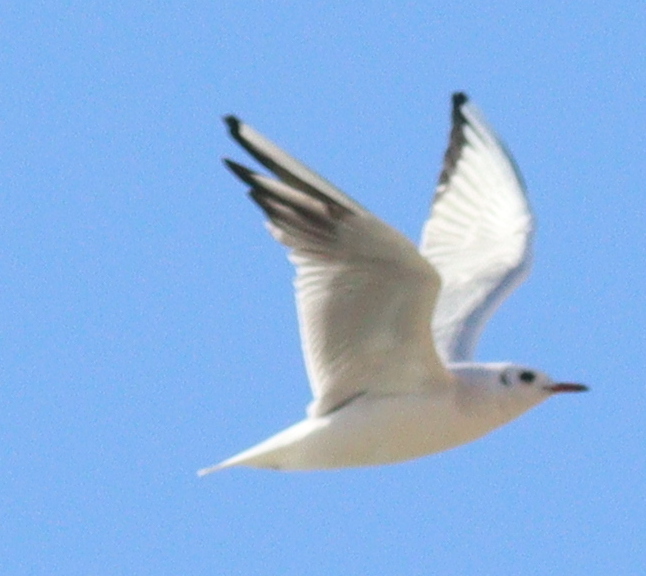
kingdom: Animalia
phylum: Chordata
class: Aves
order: Charadriiformes
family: Laridae
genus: Chroicocephalus
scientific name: Chroicocephalus ridibundus
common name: Black-headed gull
